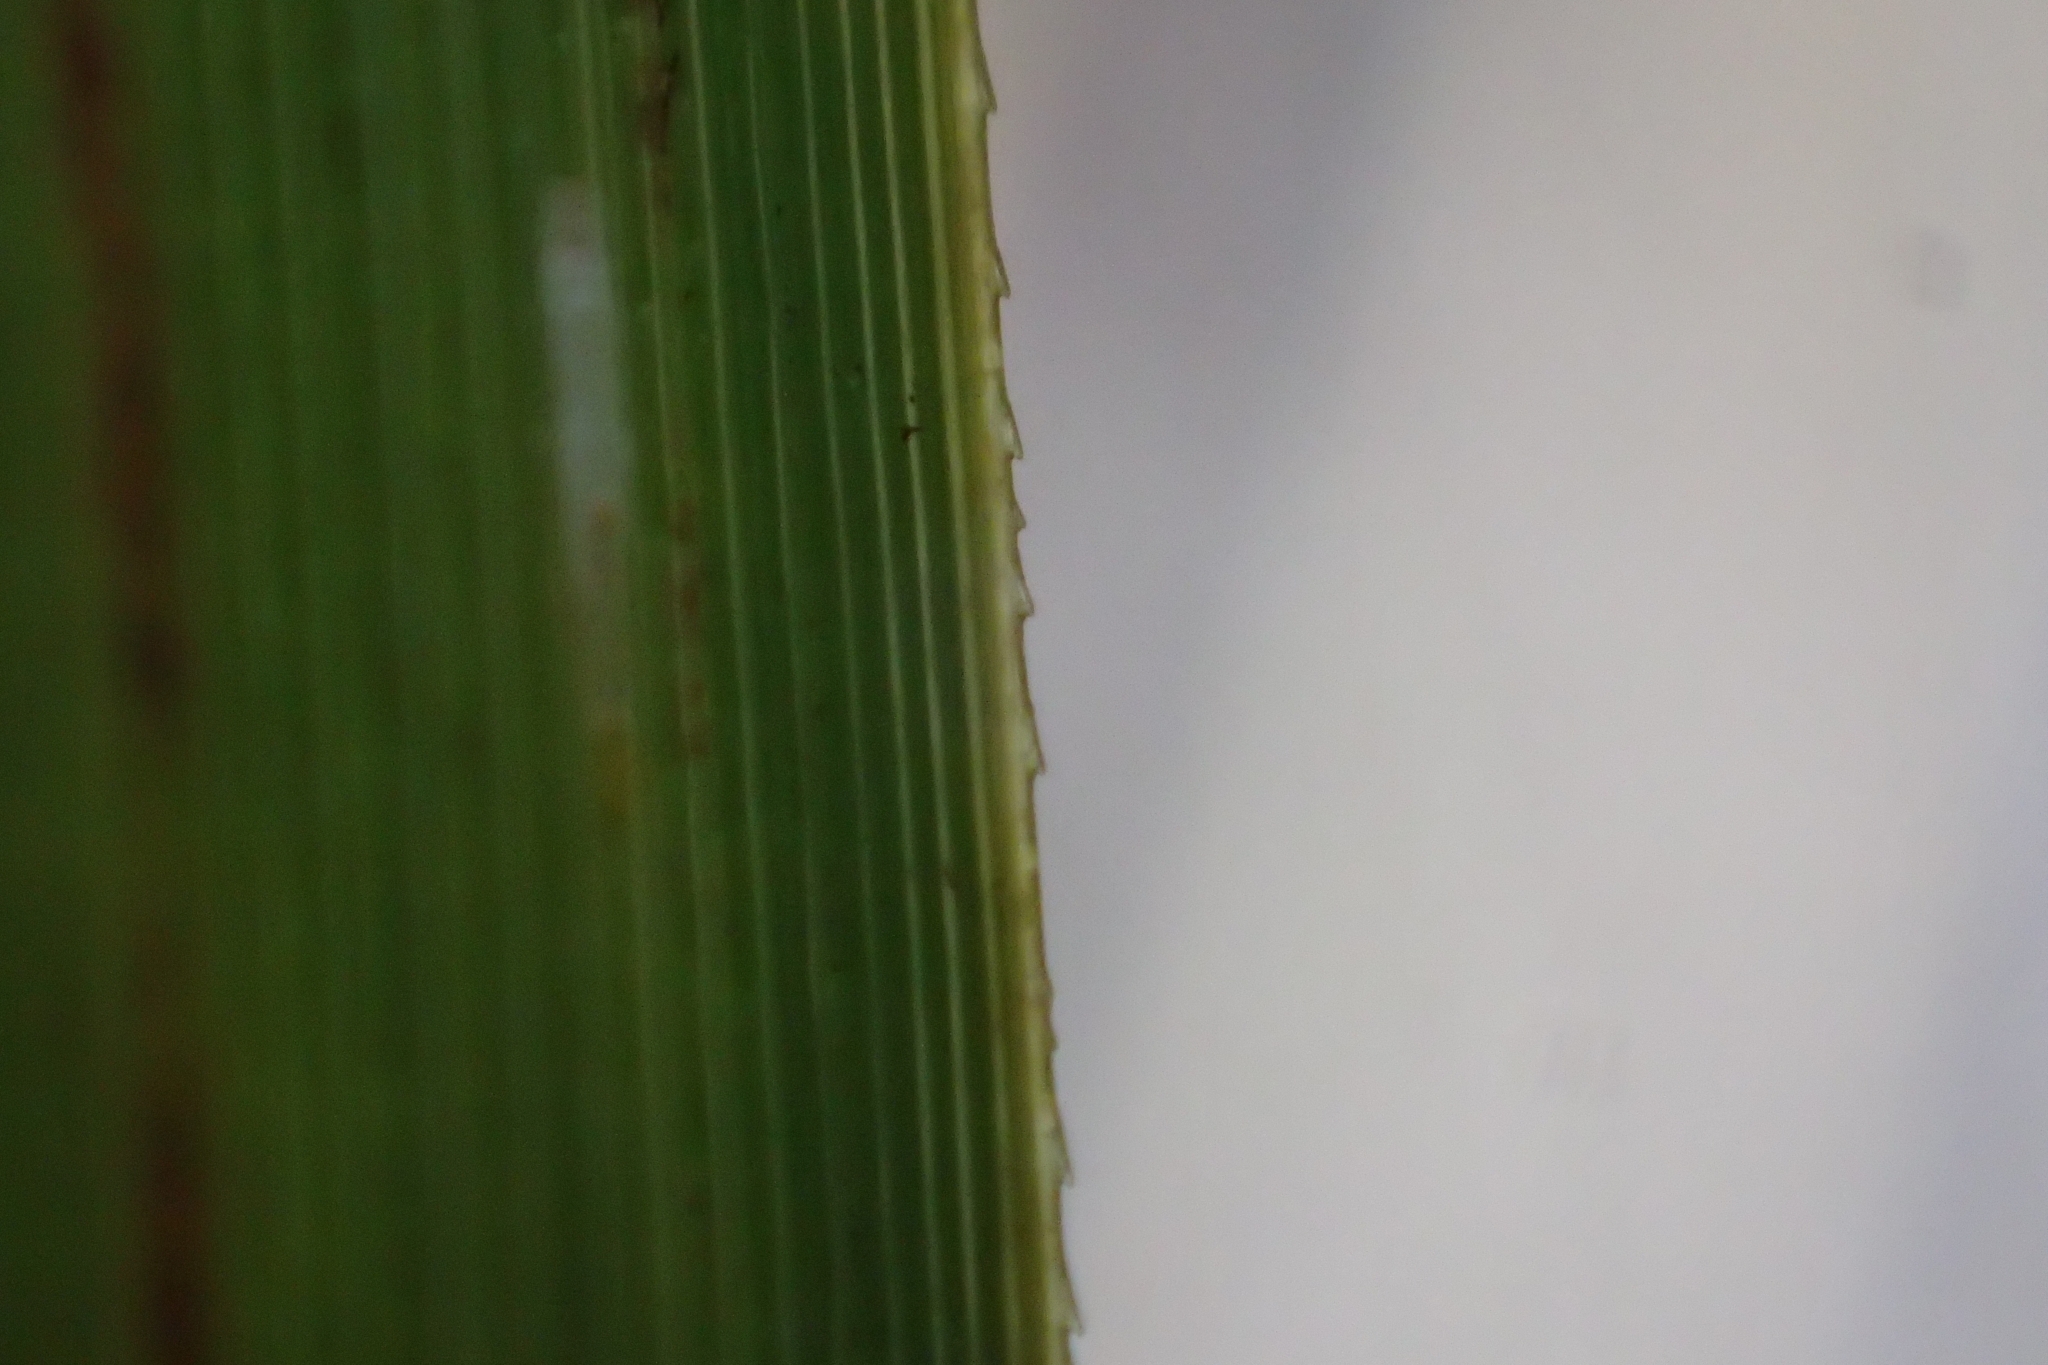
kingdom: Plantae
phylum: Tracheophyta
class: Liliopsida
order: Poales
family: Cyperaceae
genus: Gahnia
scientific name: Gahnia xanthocarpa
